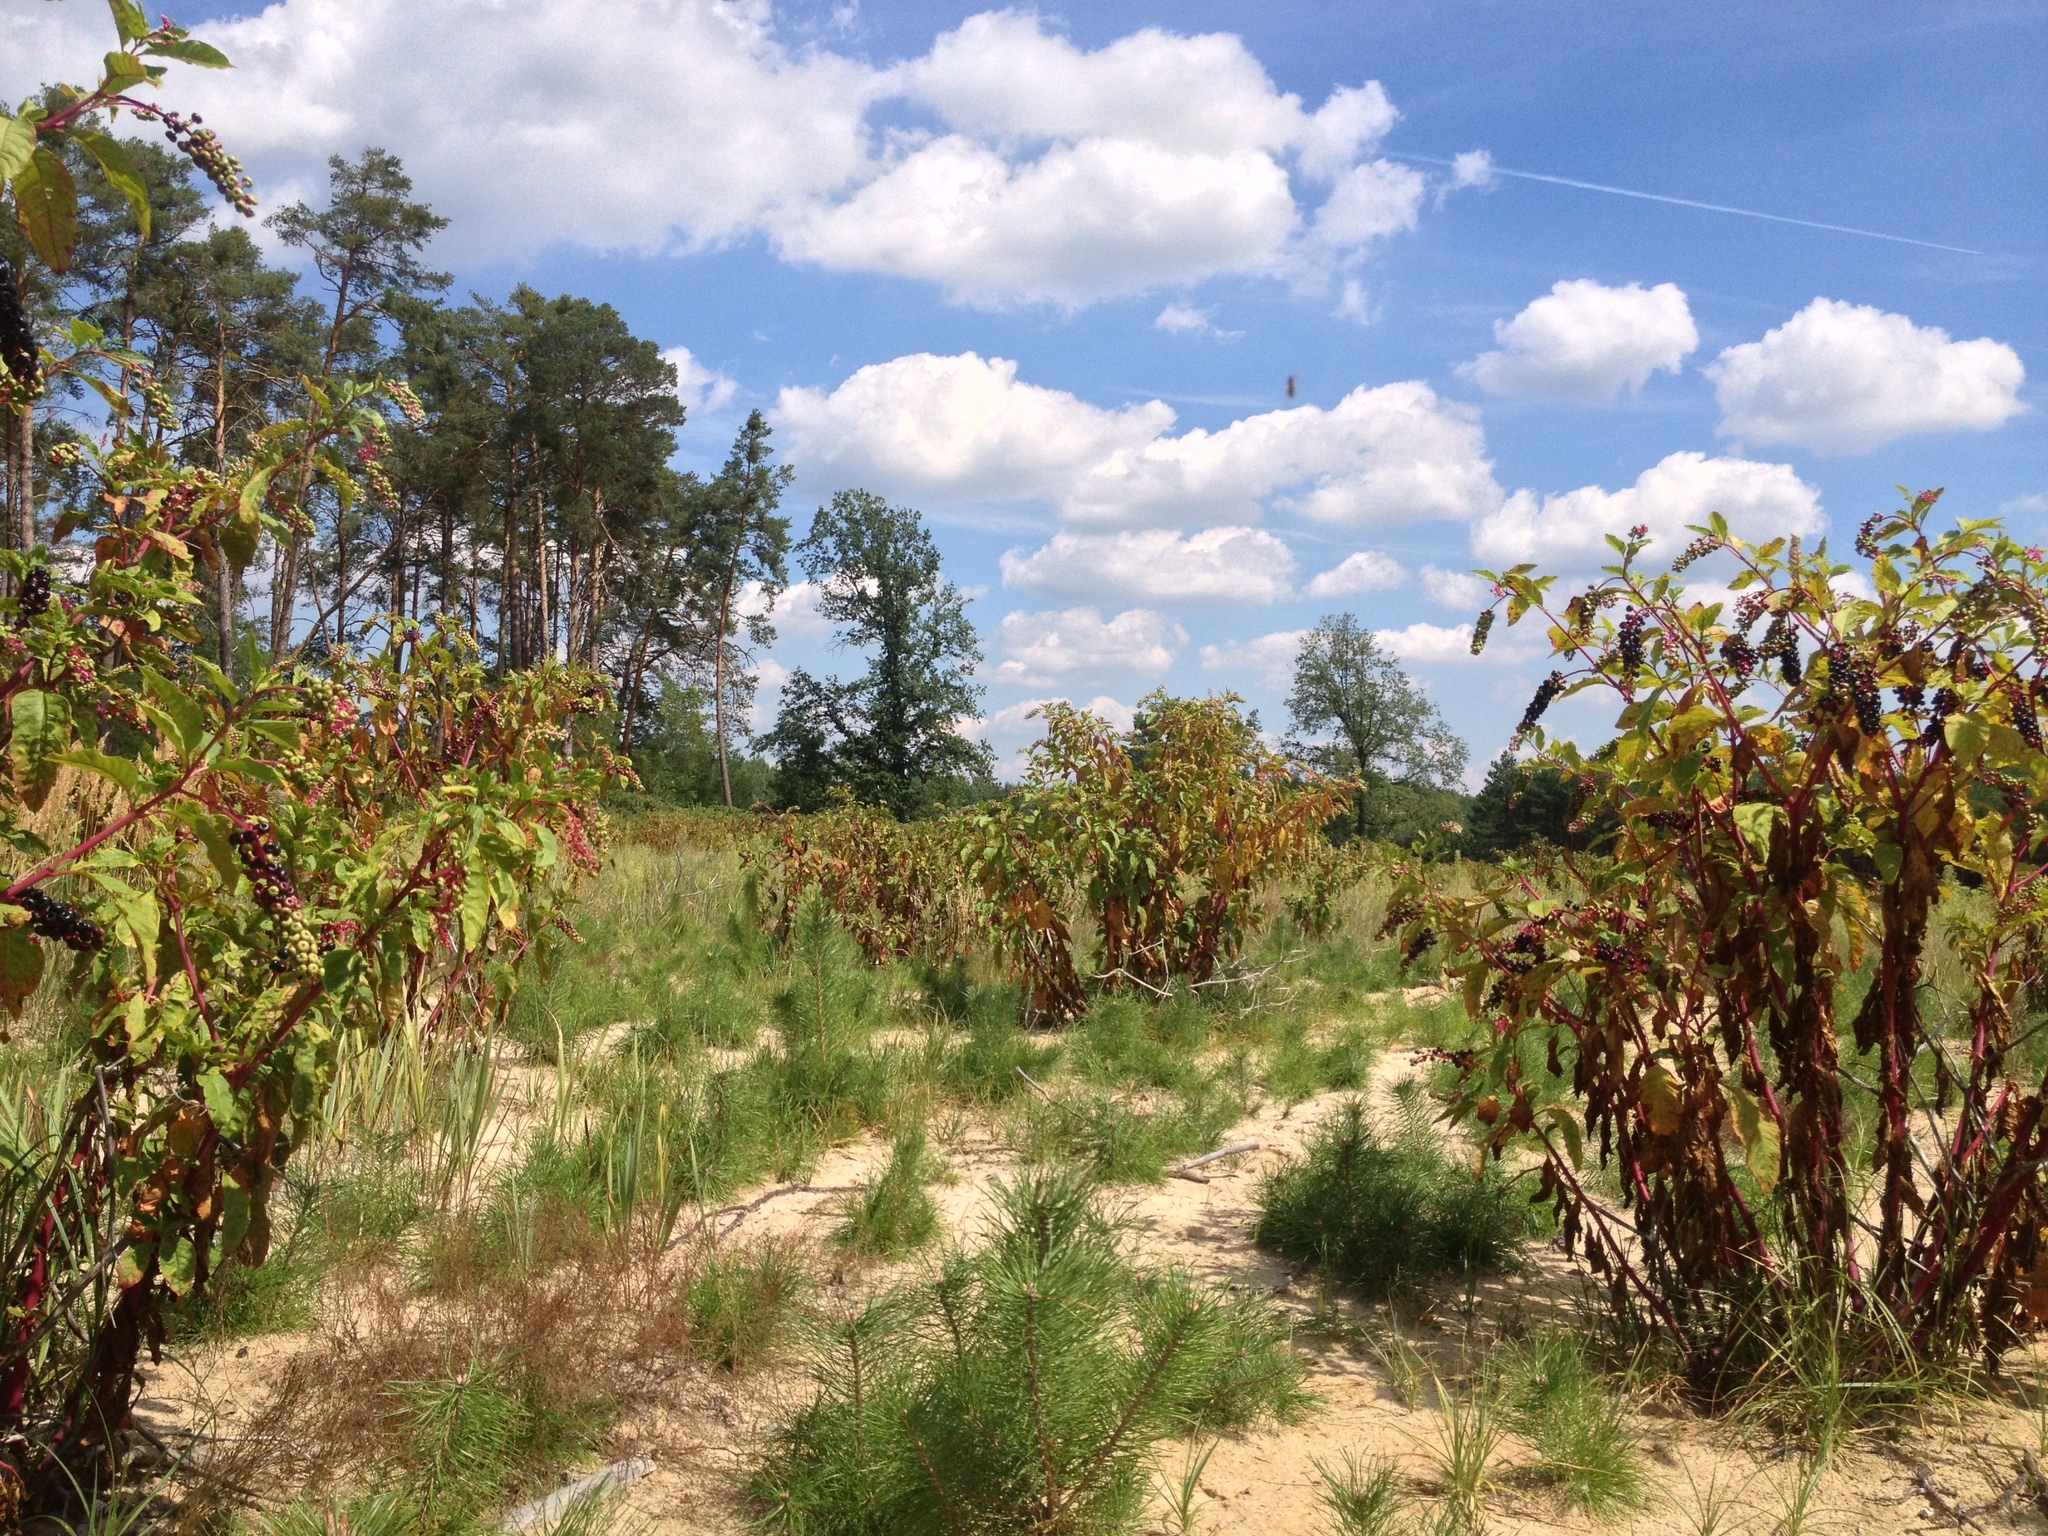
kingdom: Plantae
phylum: Tracheophyta
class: Magnoliopsida
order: Caryophyllales
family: Phytolaccaceae
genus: Phytolacca
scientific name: Phytolacca americana
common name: American pokeweed
